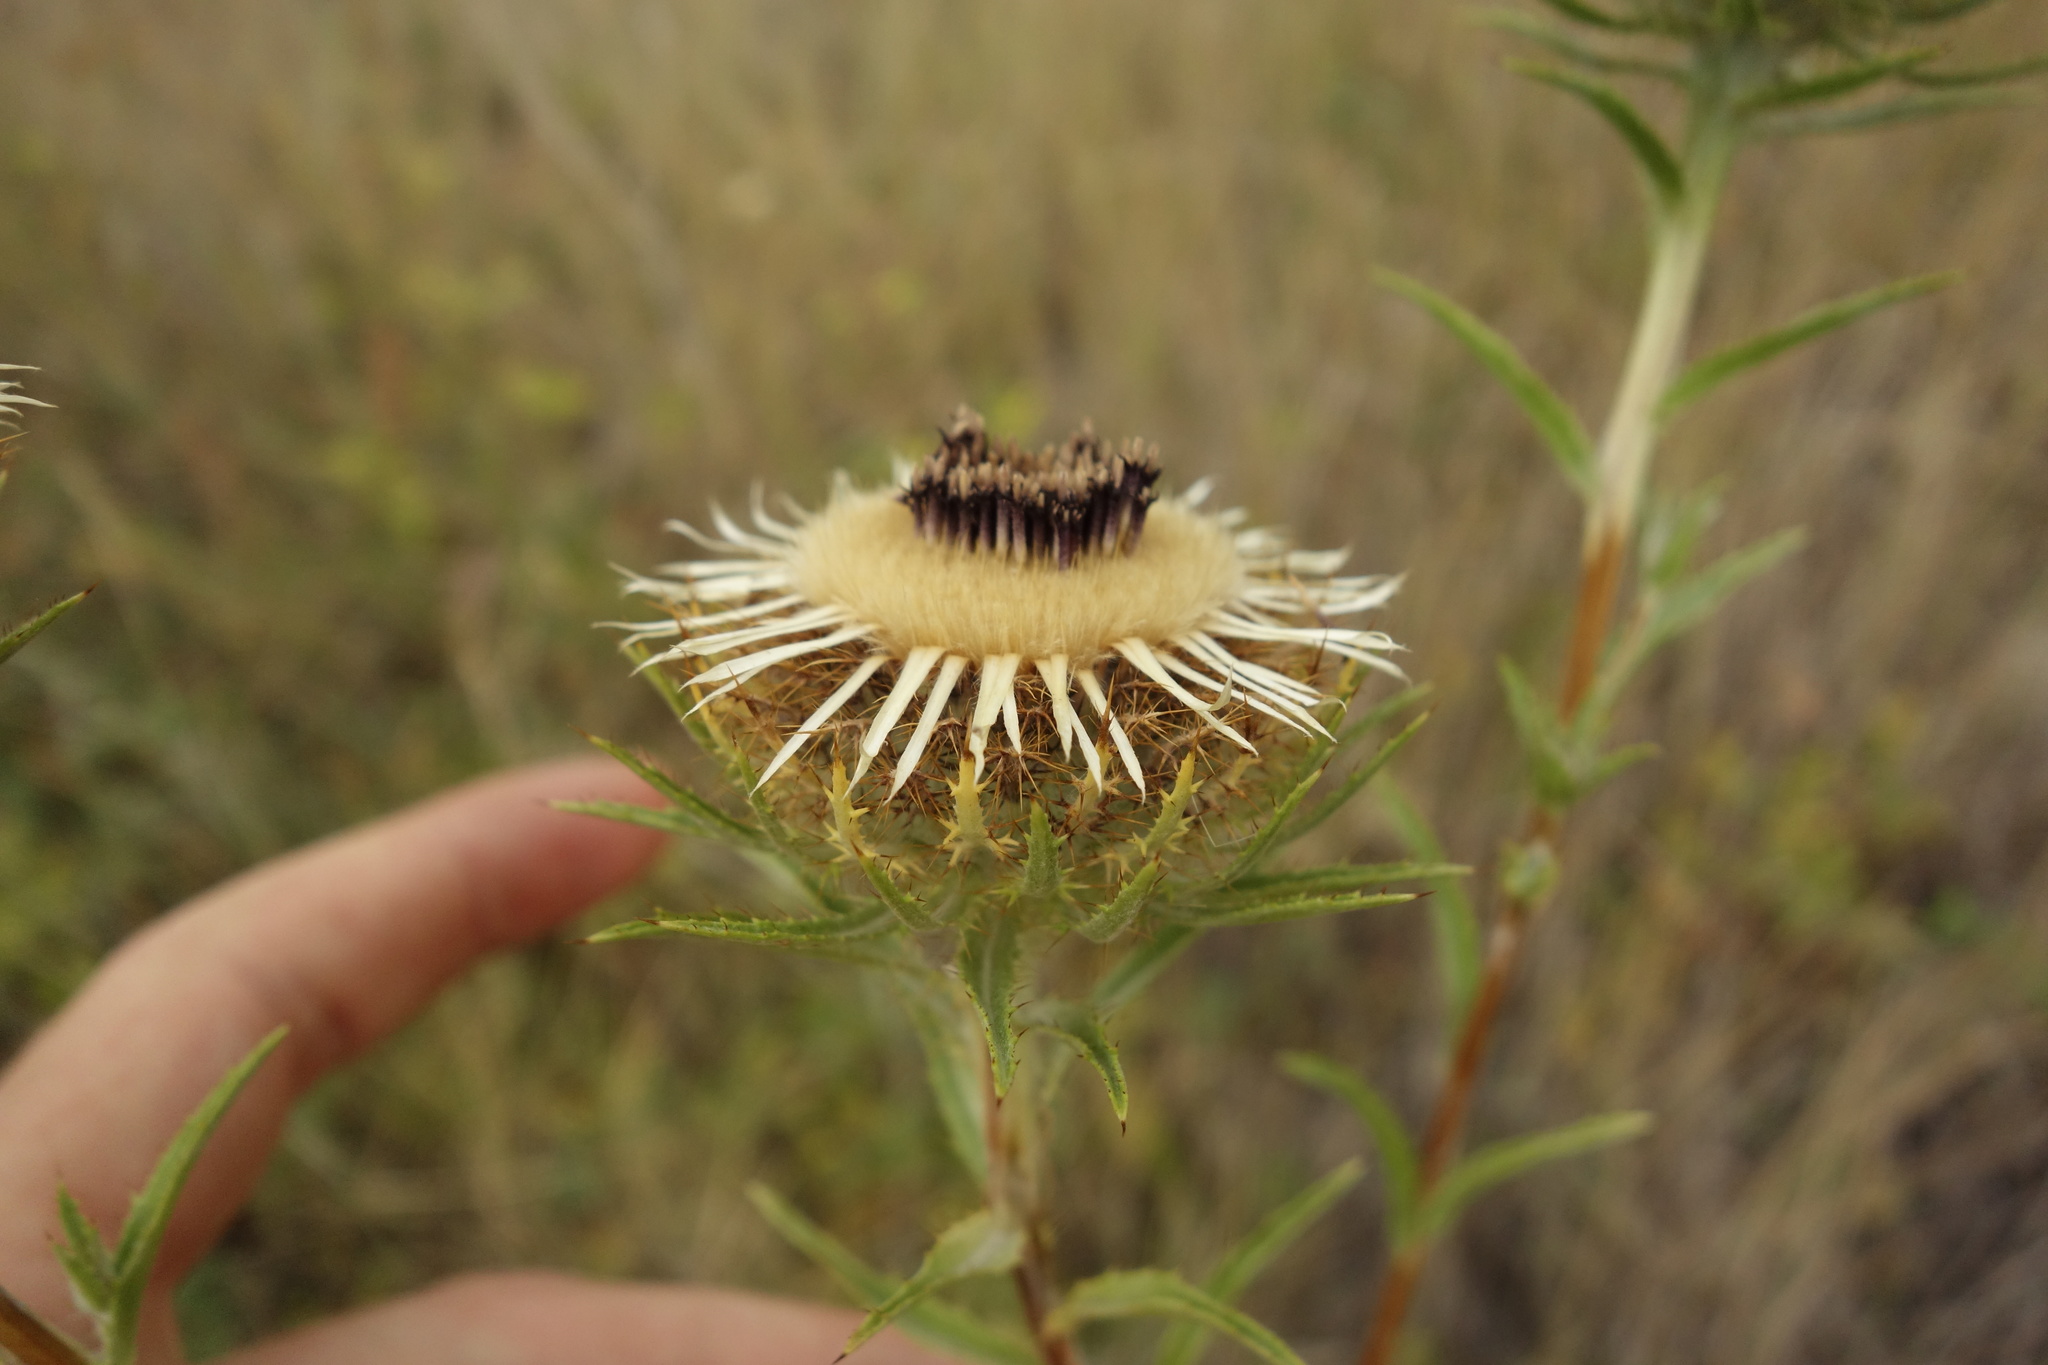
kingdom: Plantae
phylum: Tracheophyta
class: Magnoliopsida
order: Asterales
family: Asteraceae
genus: Carlina
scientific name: Carlina biebersteinii
